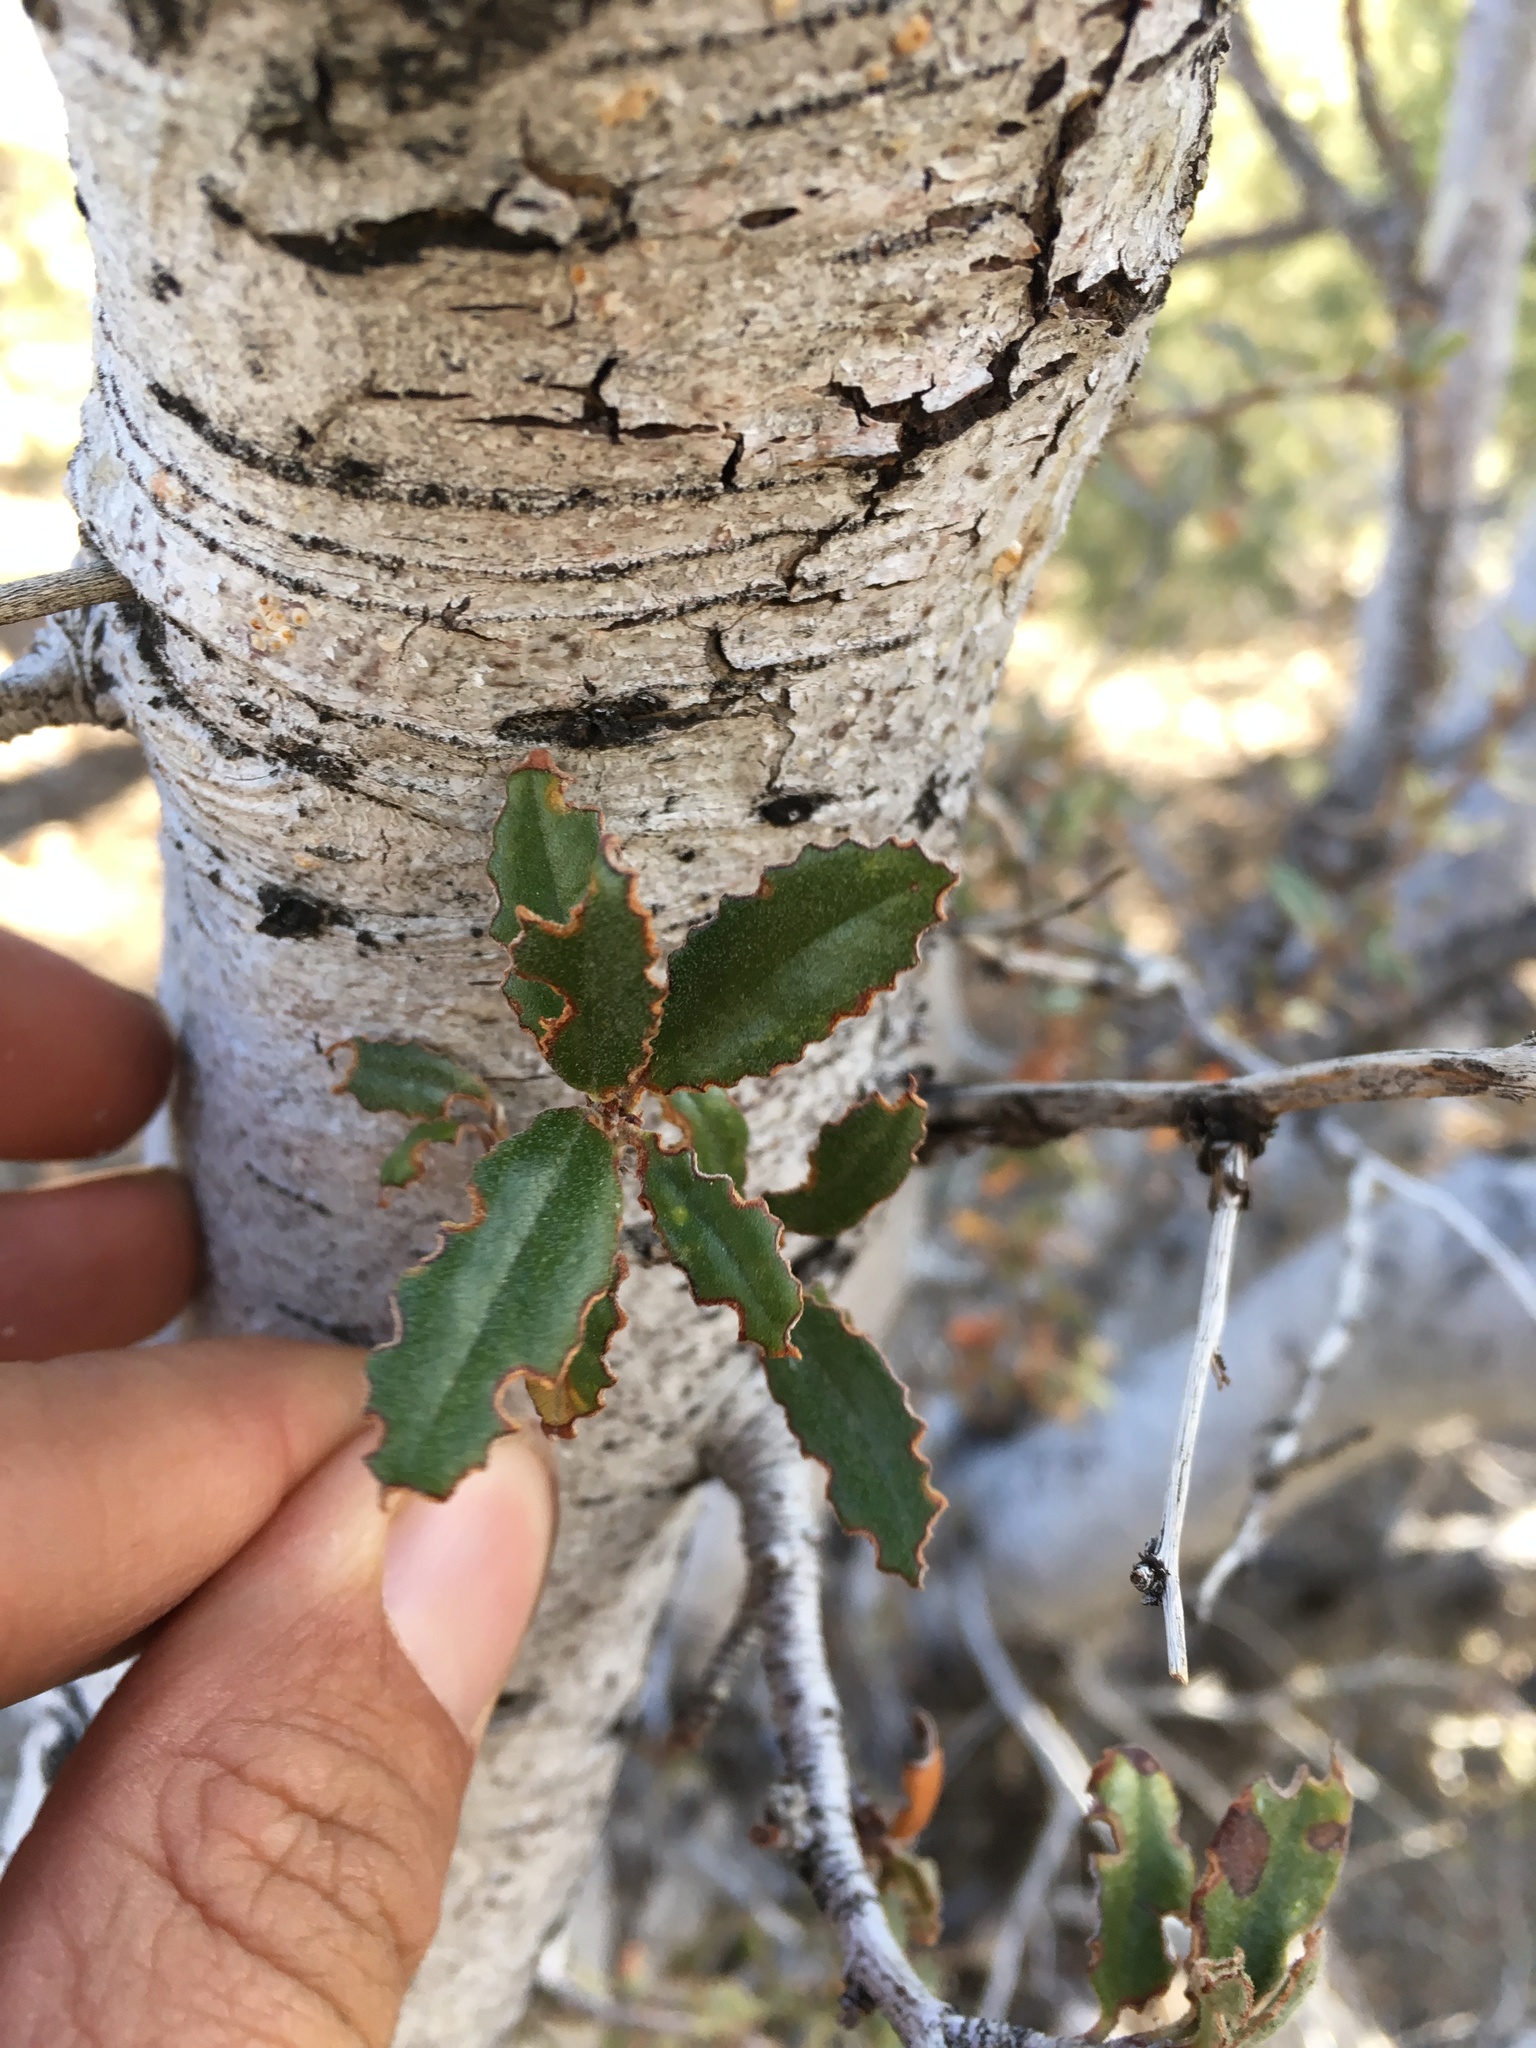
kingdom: Plantae
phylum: Tracheophyta
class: Magnoliopsida
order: Rosales
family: Rosaceae
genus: Cercocarpus
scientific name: Cercocarpus ledifolius
